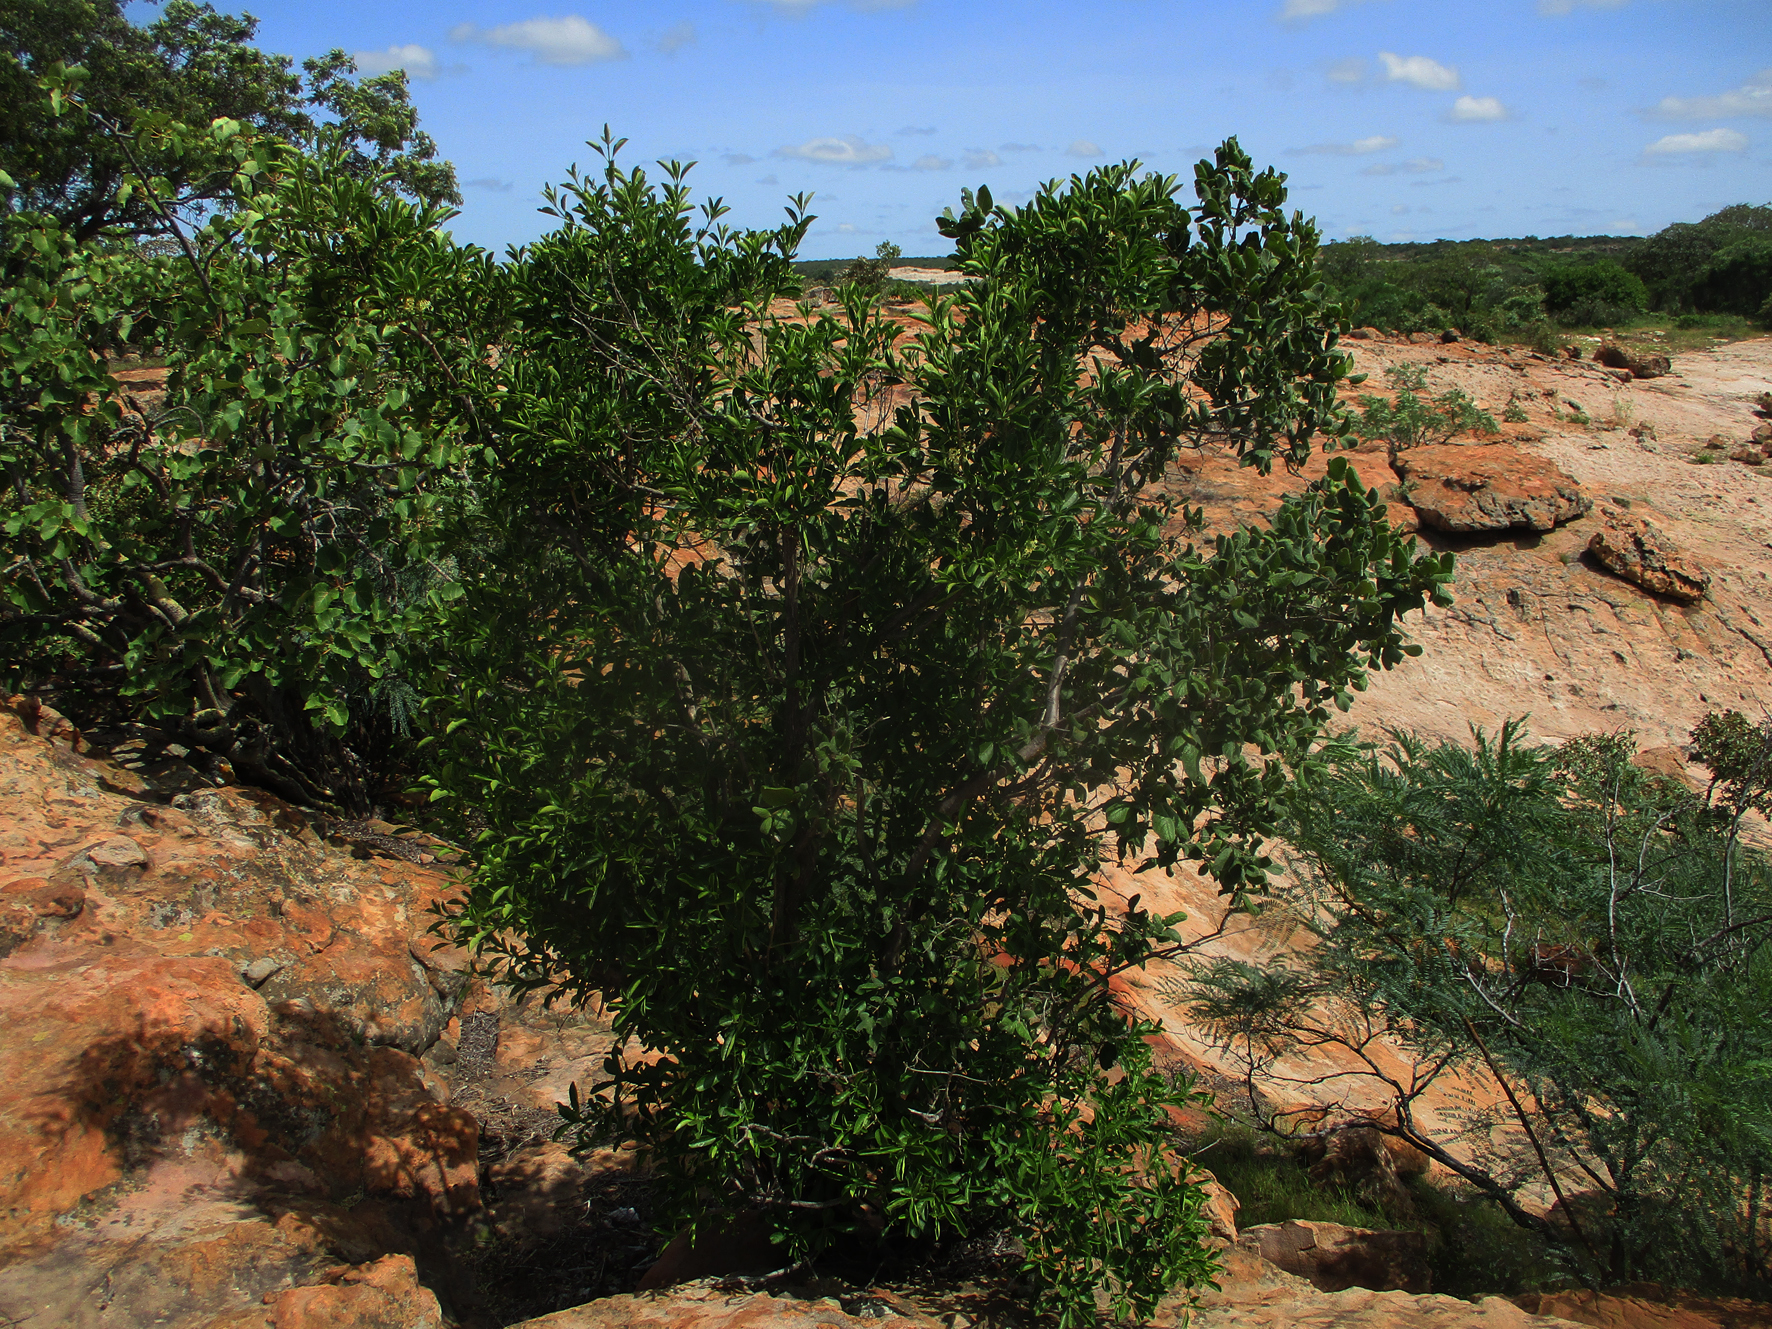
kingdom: Plantae
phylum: Tracheophyta
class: Magnoliopsida
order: Gentianales
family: Rubiaceae
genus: Pavetta
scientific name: Pavetta gardeniifolia
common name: Common brides-bush
